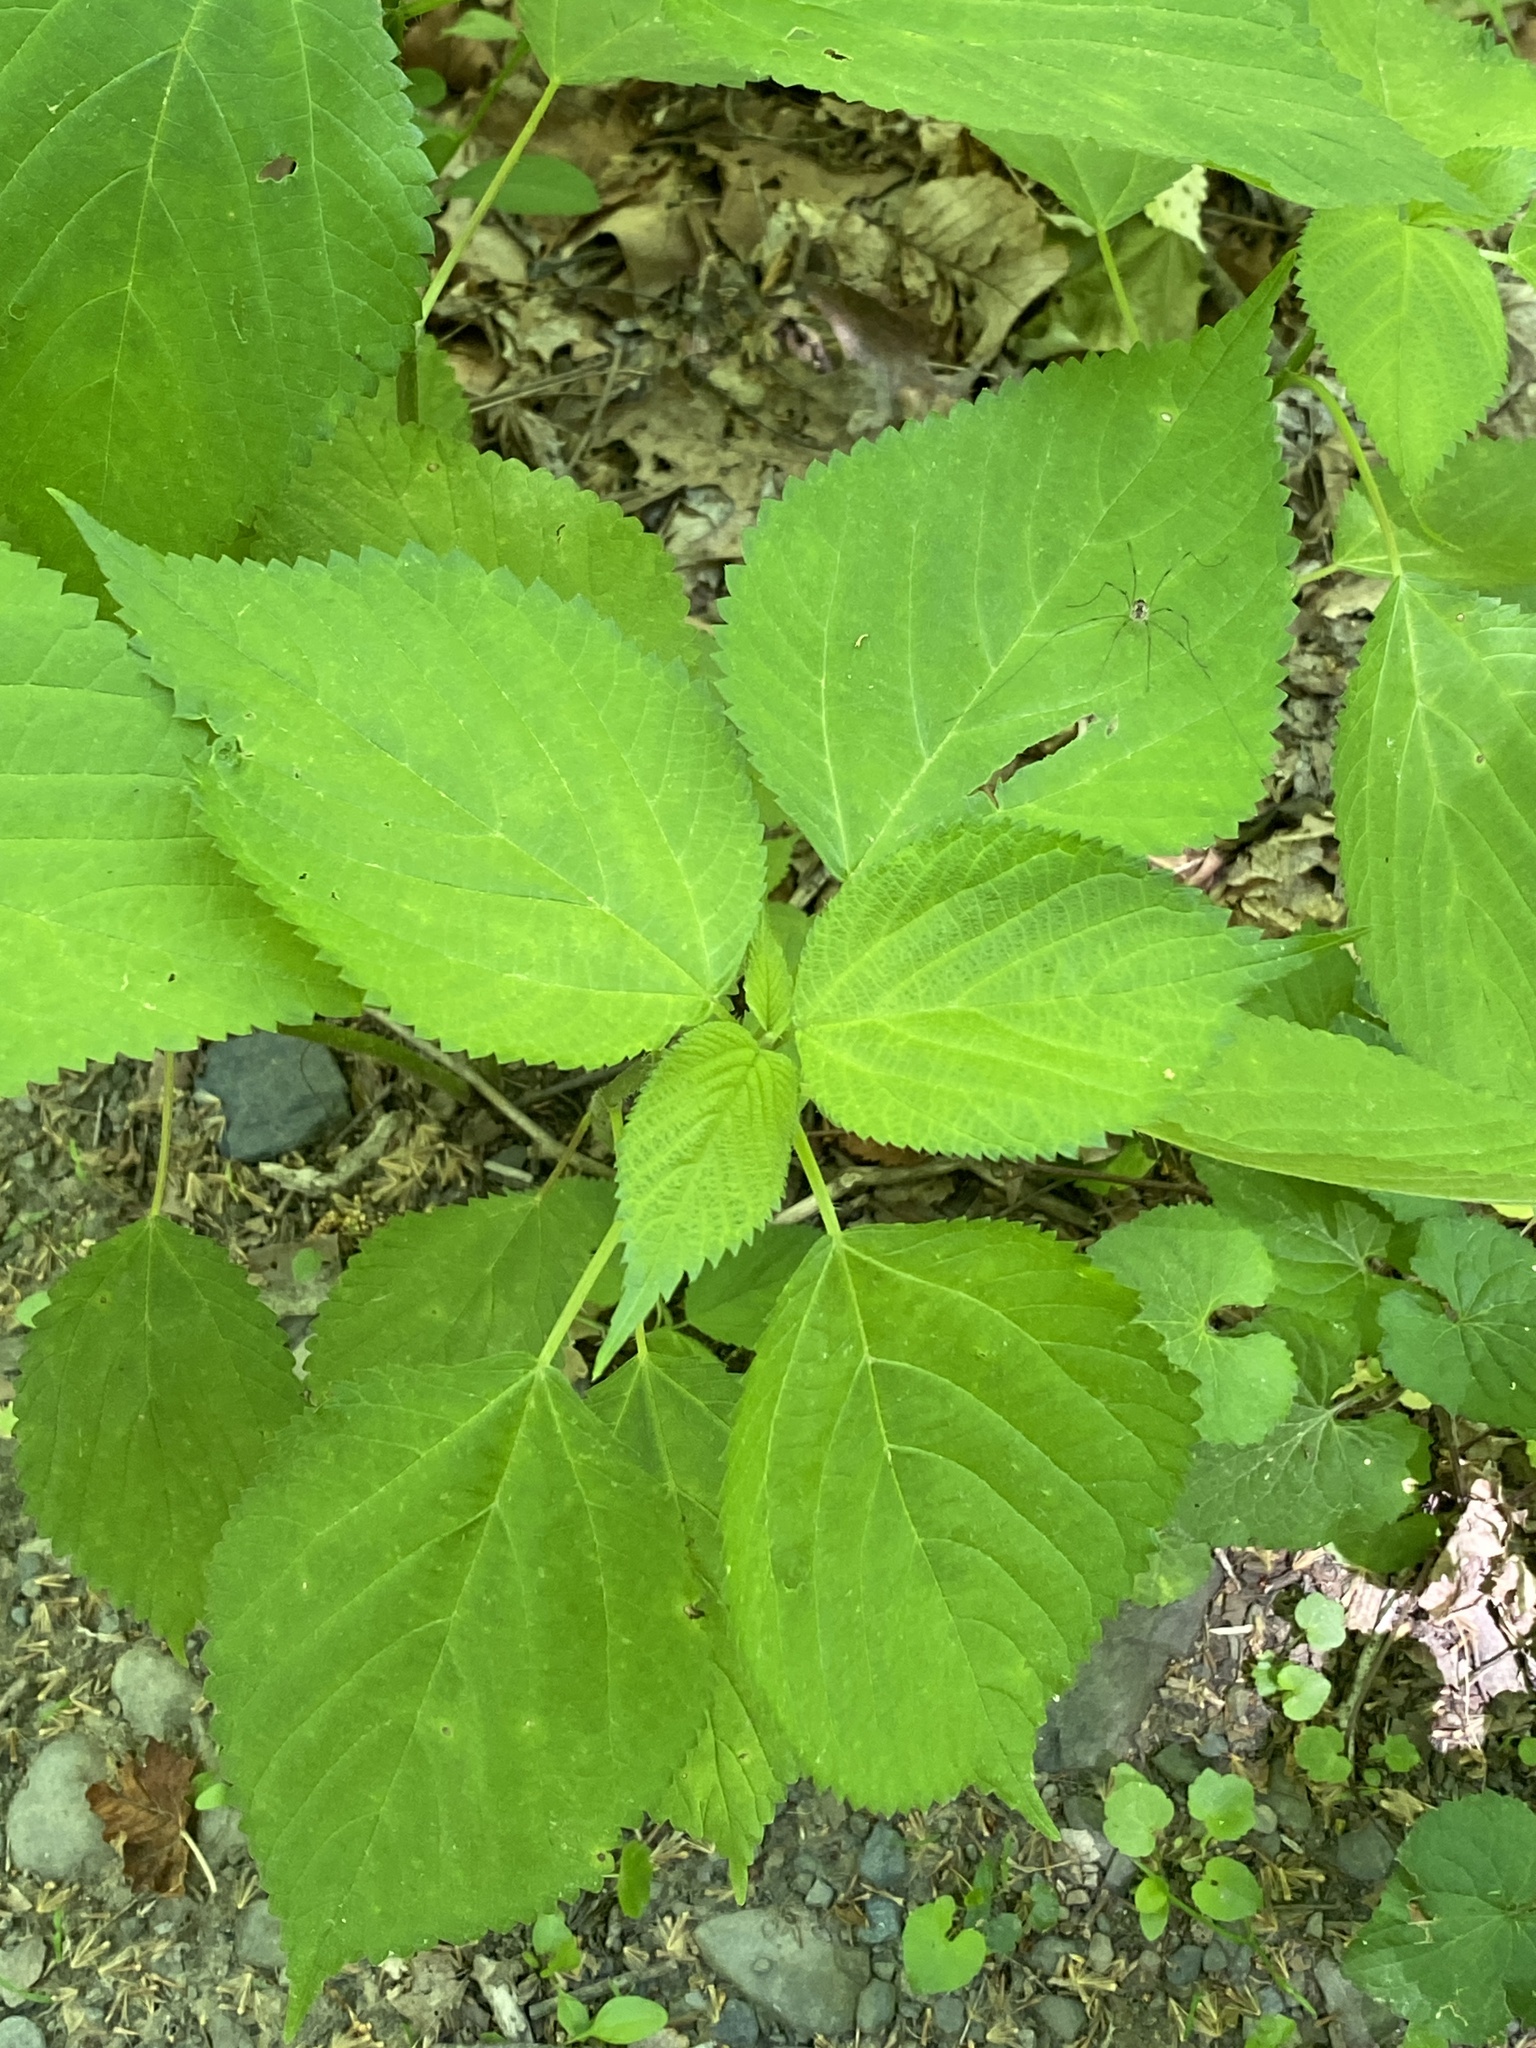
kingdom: Plantae
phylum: Tracheophyta
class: Magnoliopsida
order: Rosales
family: Urticaceae
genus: Laportea
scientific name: Laportea canadensis
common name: Canada nettle
